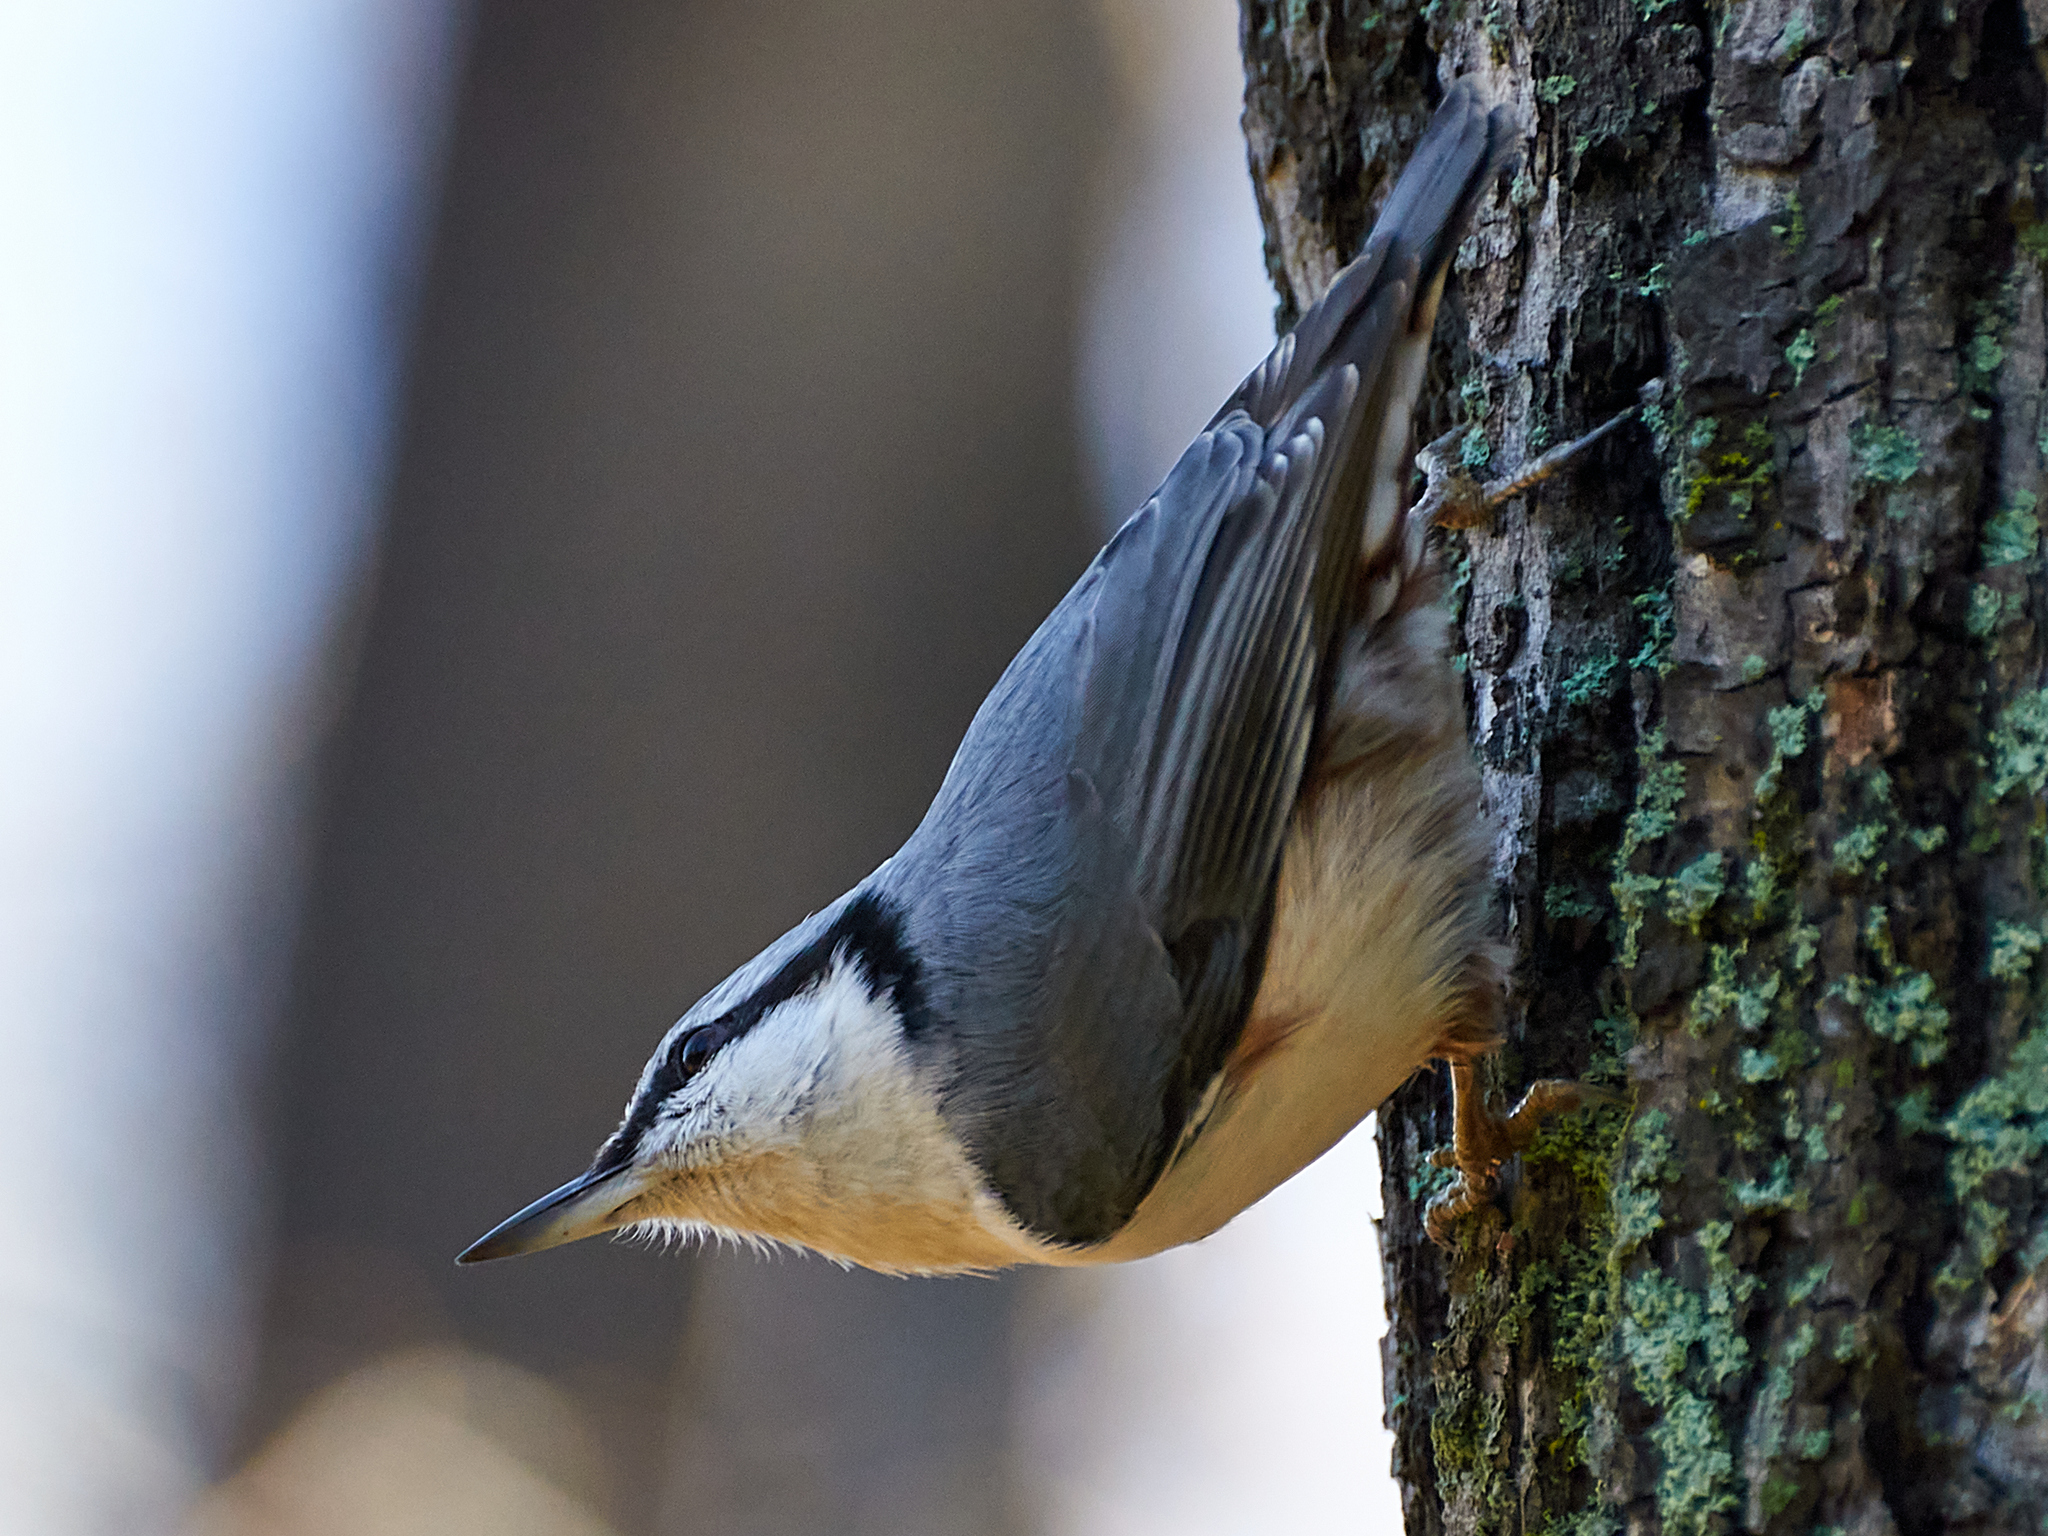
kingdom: Animalia
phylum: Chordata
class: Aves
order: Passeriformes
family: Sittidae
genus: Sitta
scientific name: Sitta europaea
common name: Eurasian nuthatch
